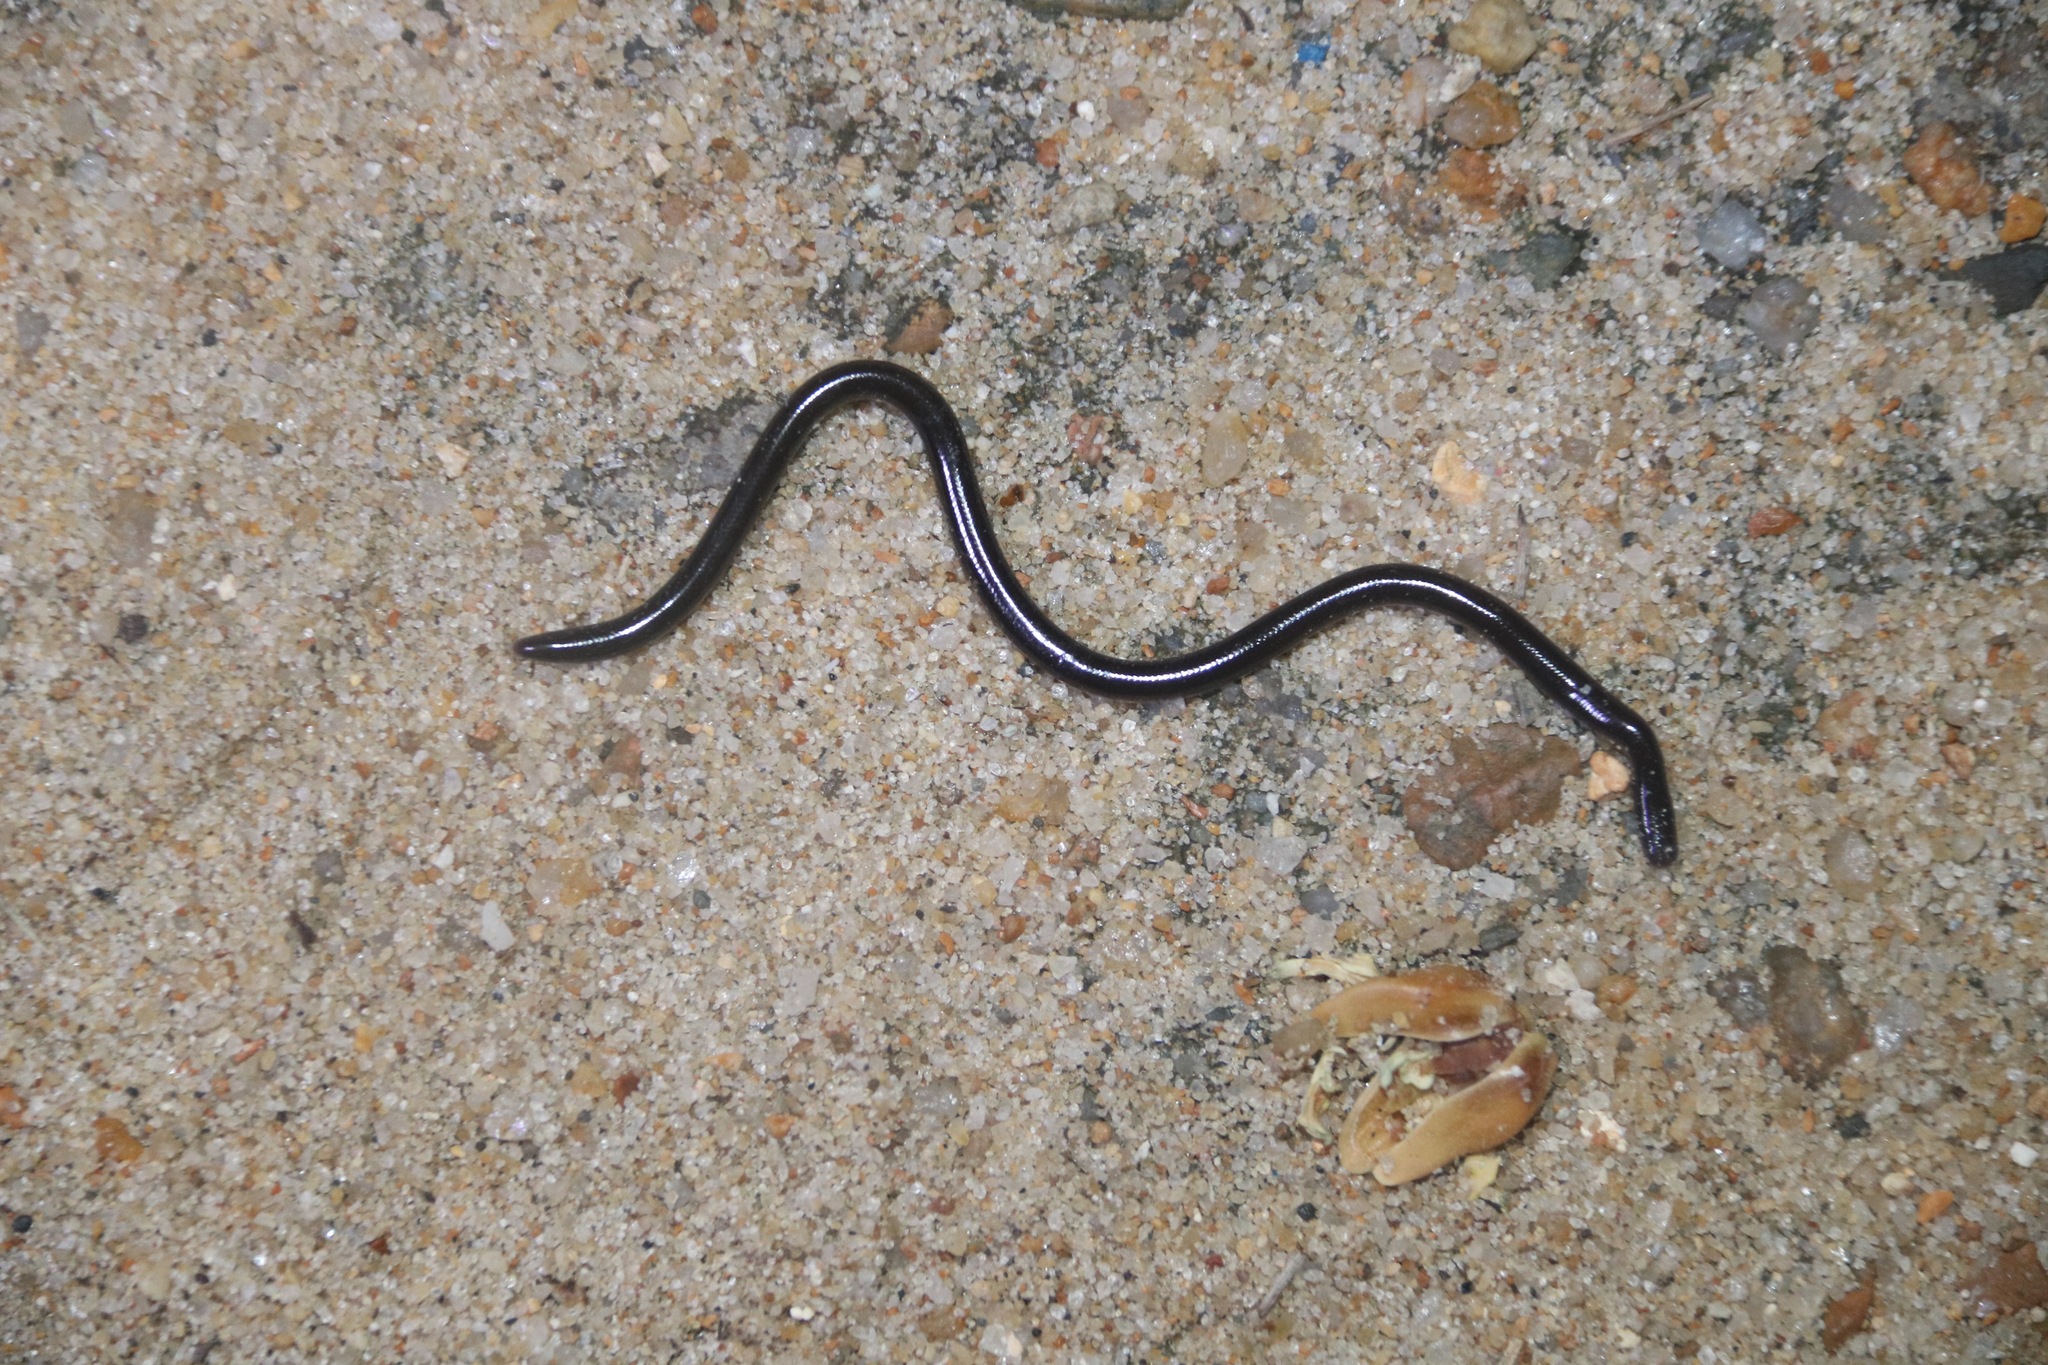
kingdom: Animalia
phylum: Chordata
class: Squamata
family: Typhlopidae
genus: Indotyphlops
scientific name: Indotyphlops braminus
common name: Brahminy blindsnake
